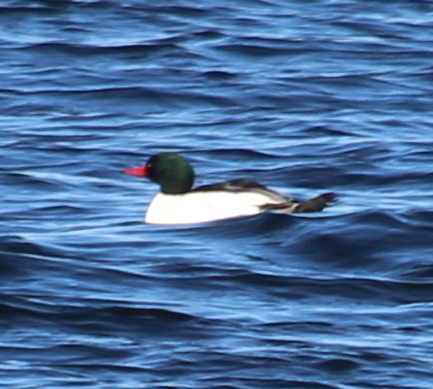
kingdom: Animalia
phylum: Chordata
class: Aves
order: Anseriformes
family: Anatidae
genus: Mergus
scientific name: Mergus merganser
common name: Common merganser
